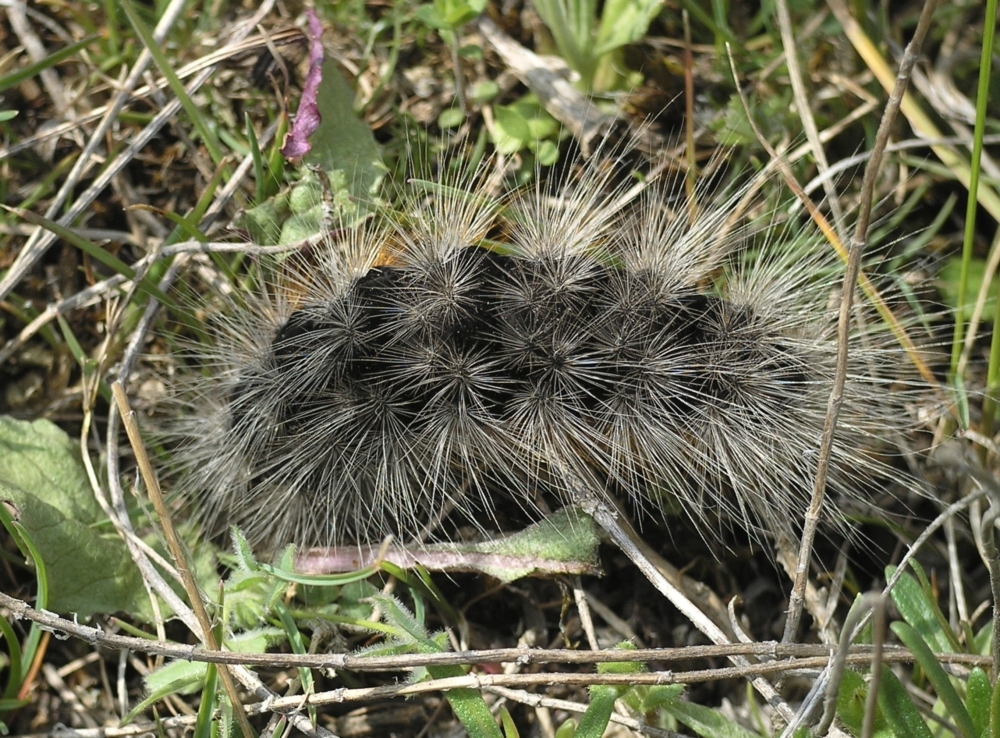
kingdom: Animalia
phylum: Arthropoda
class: Insecta
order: Lepidoptera
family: Erebidae
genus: Eucharia
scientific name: Eucharia festiva
